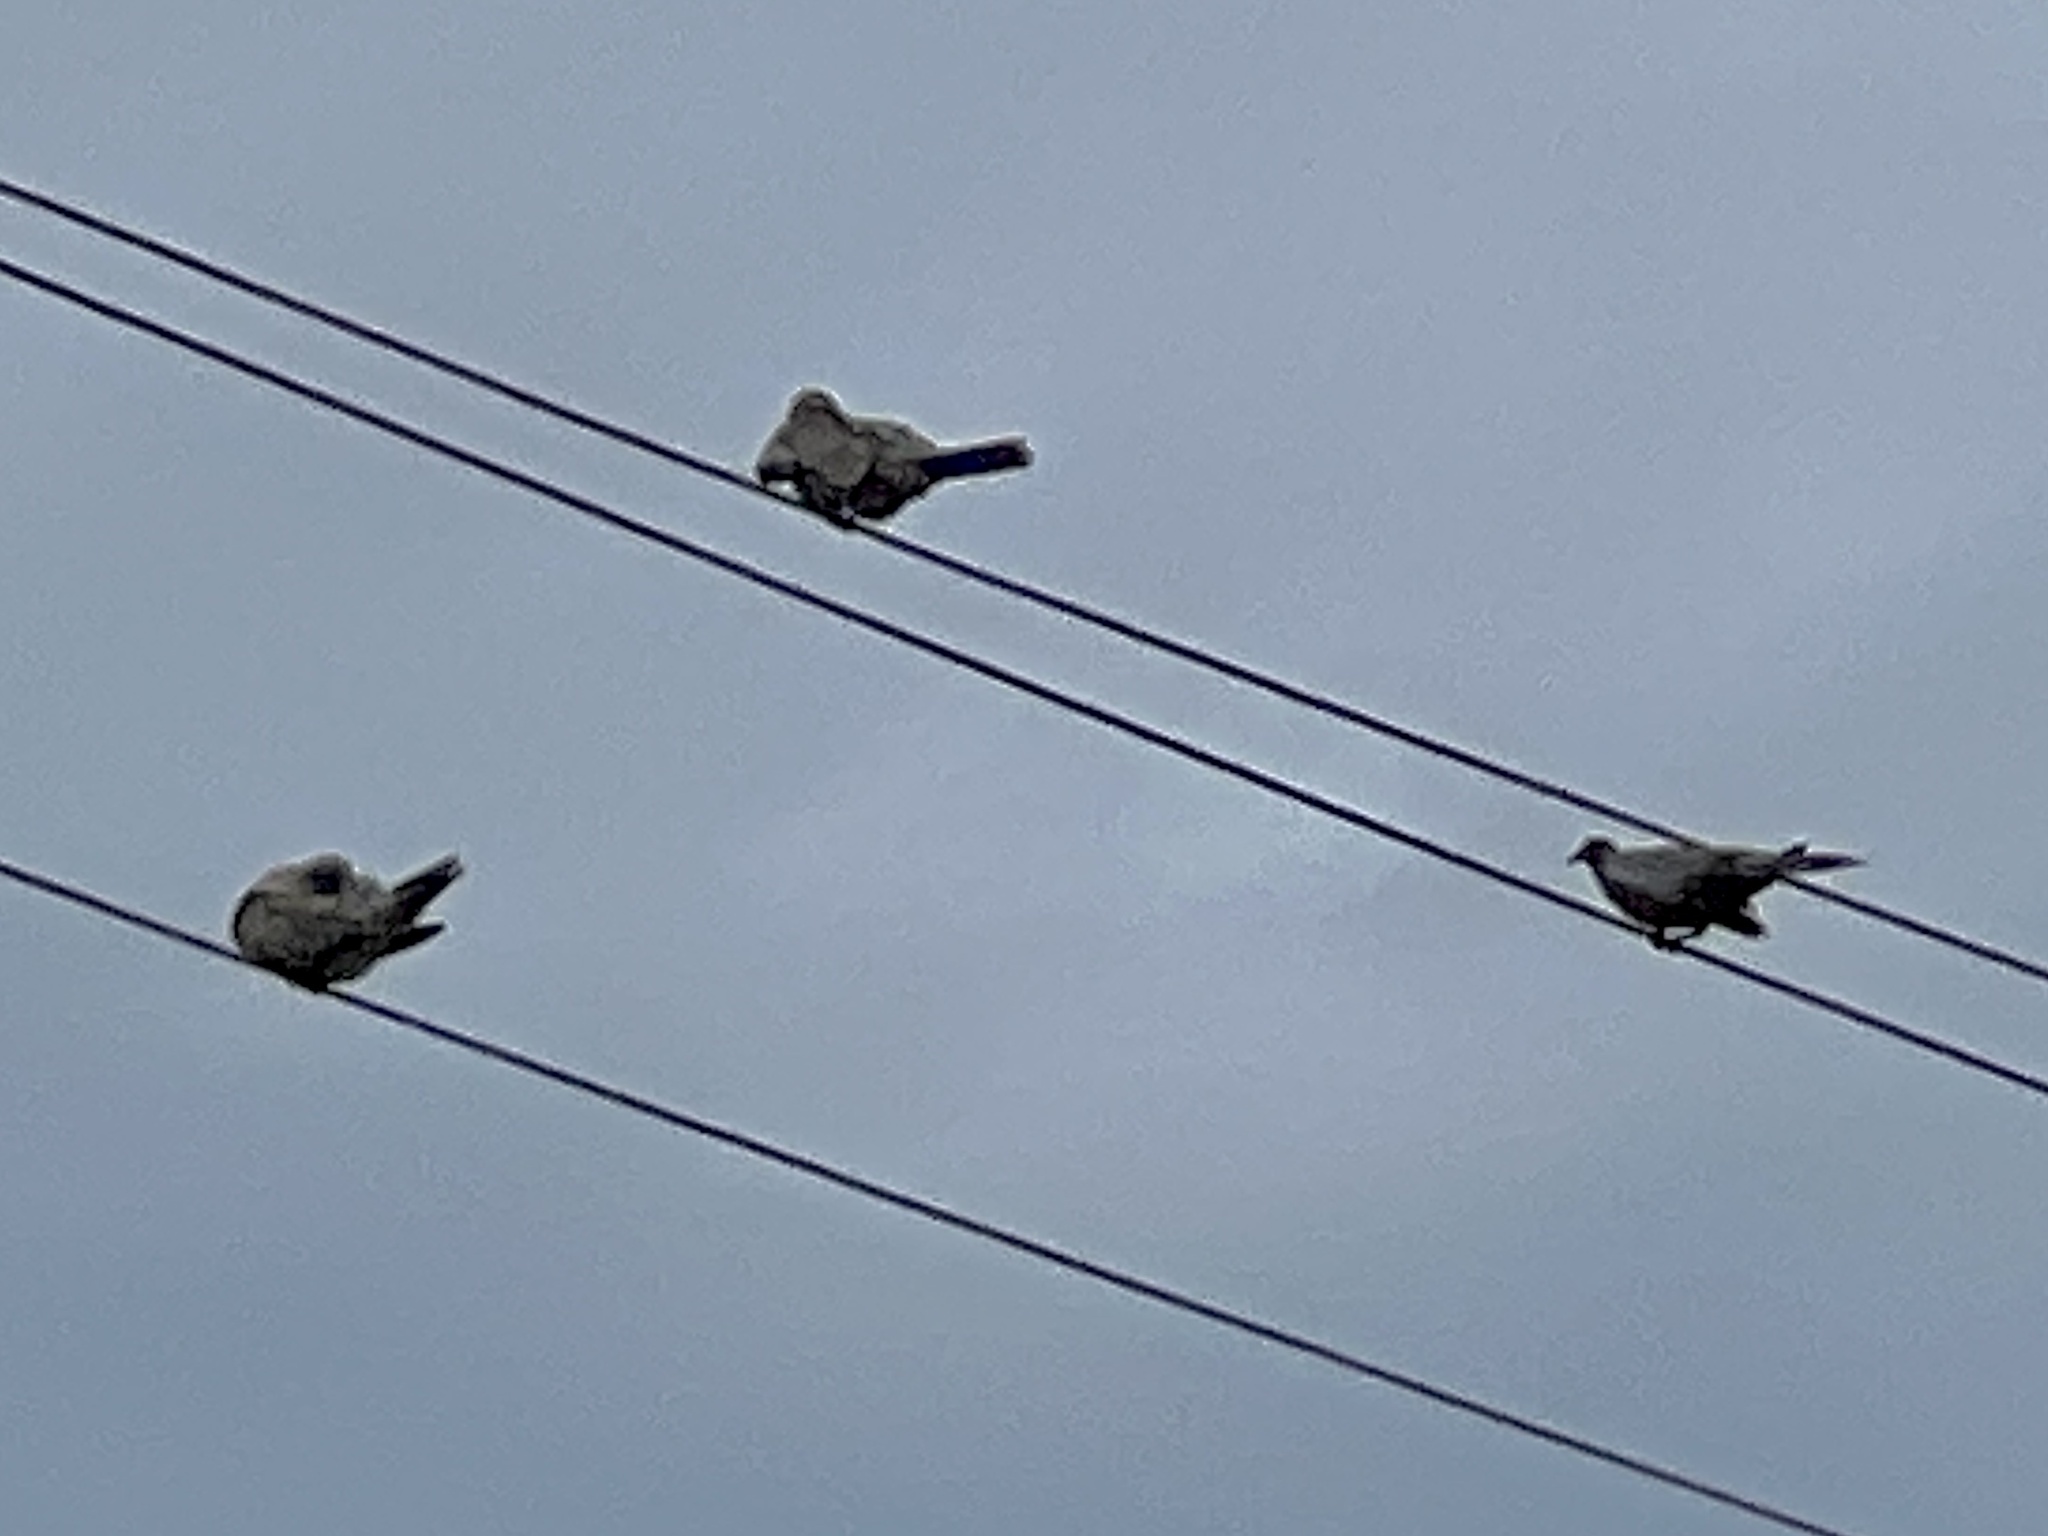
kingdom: Animalia
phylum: Chordata
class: Aves
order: Columbiformes
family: Columbidae
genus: Streptopelia
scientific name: Streptopelia decaocto
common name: Eurasian collared dove
